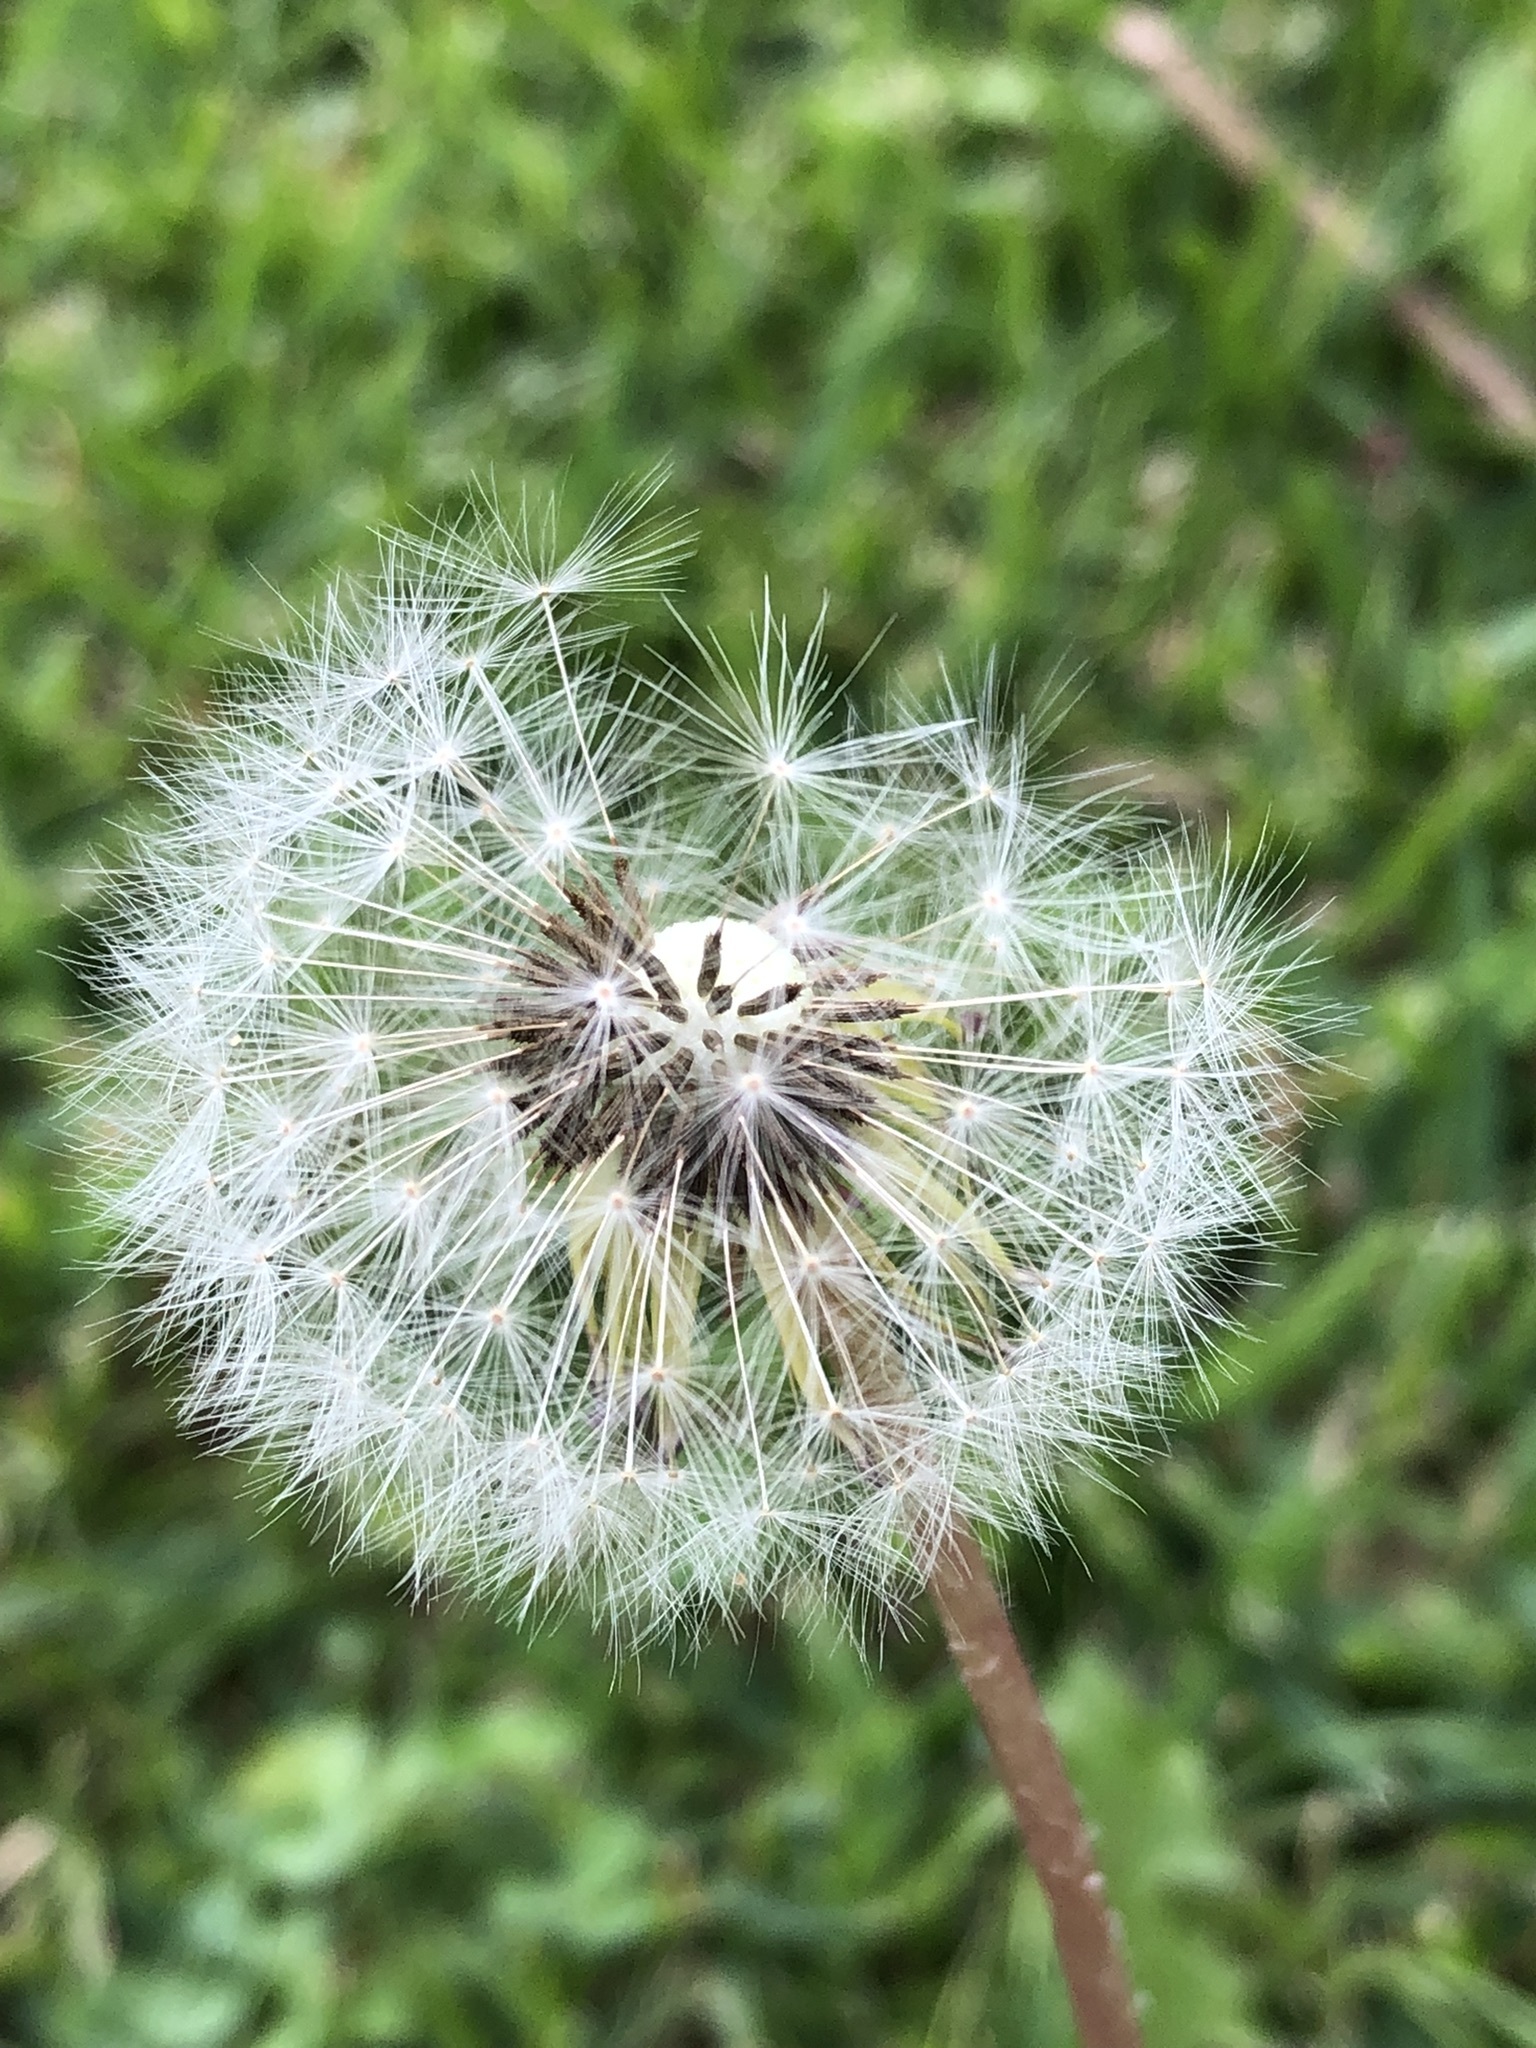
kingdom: Plantae
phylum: Tracheophyta
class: Magnoliopsida
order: Asterales
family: Asteraceae
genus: Taraxacum
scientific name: Taraxacum officinale
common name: Common dandelion
